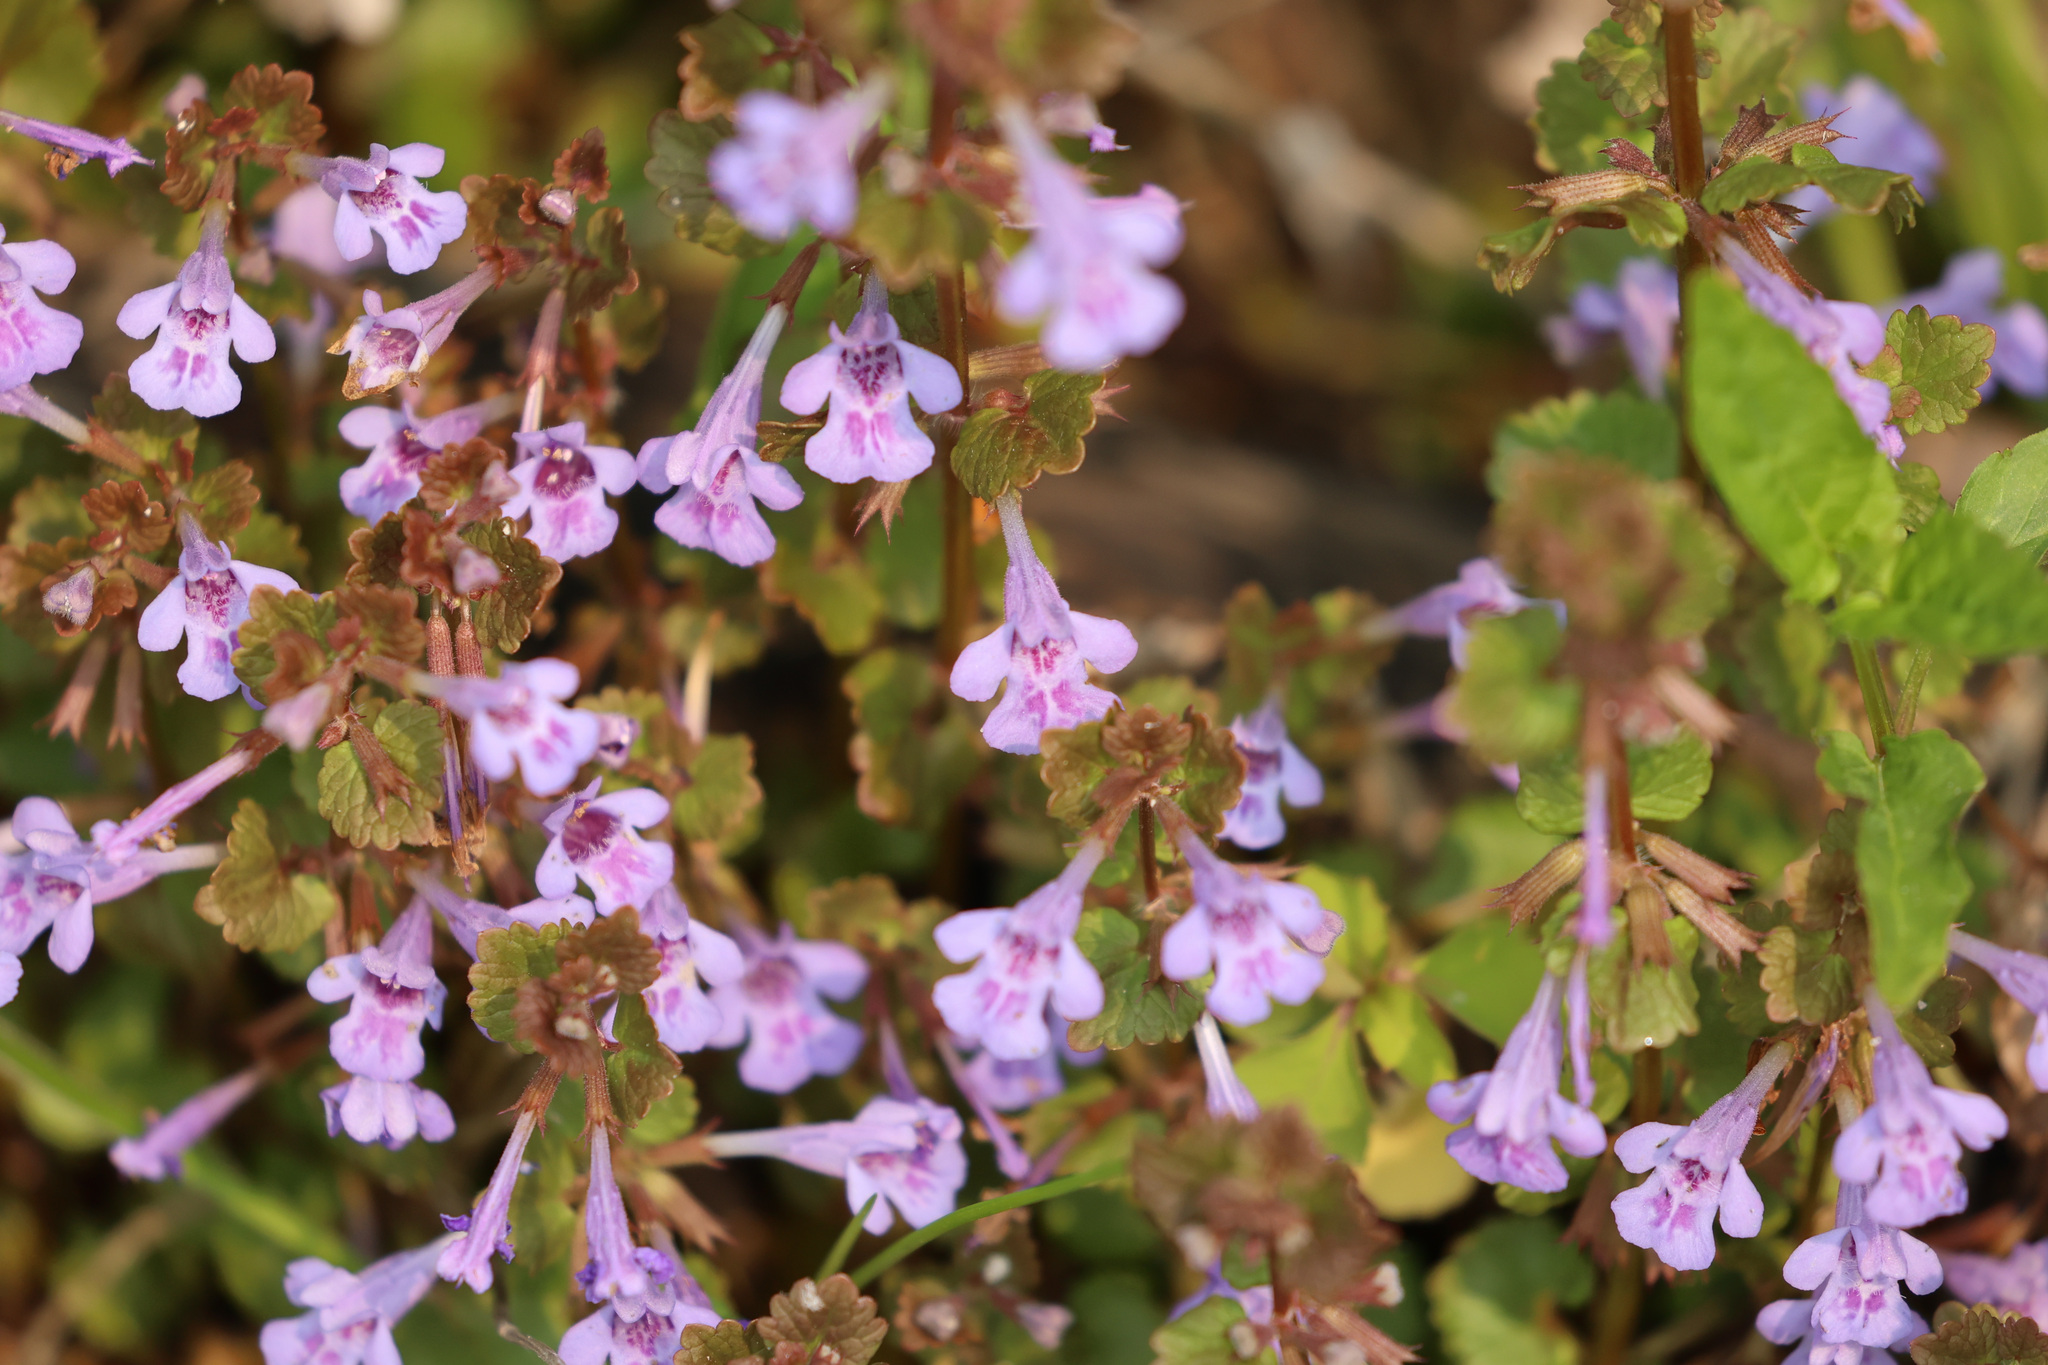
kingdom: Plantae
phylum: Tracheophyta
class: Magnoliopsida
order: Lamiales
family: Lamiaceae
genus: Glechoma
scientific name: Glechoma hederacea
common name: Ground ivy
